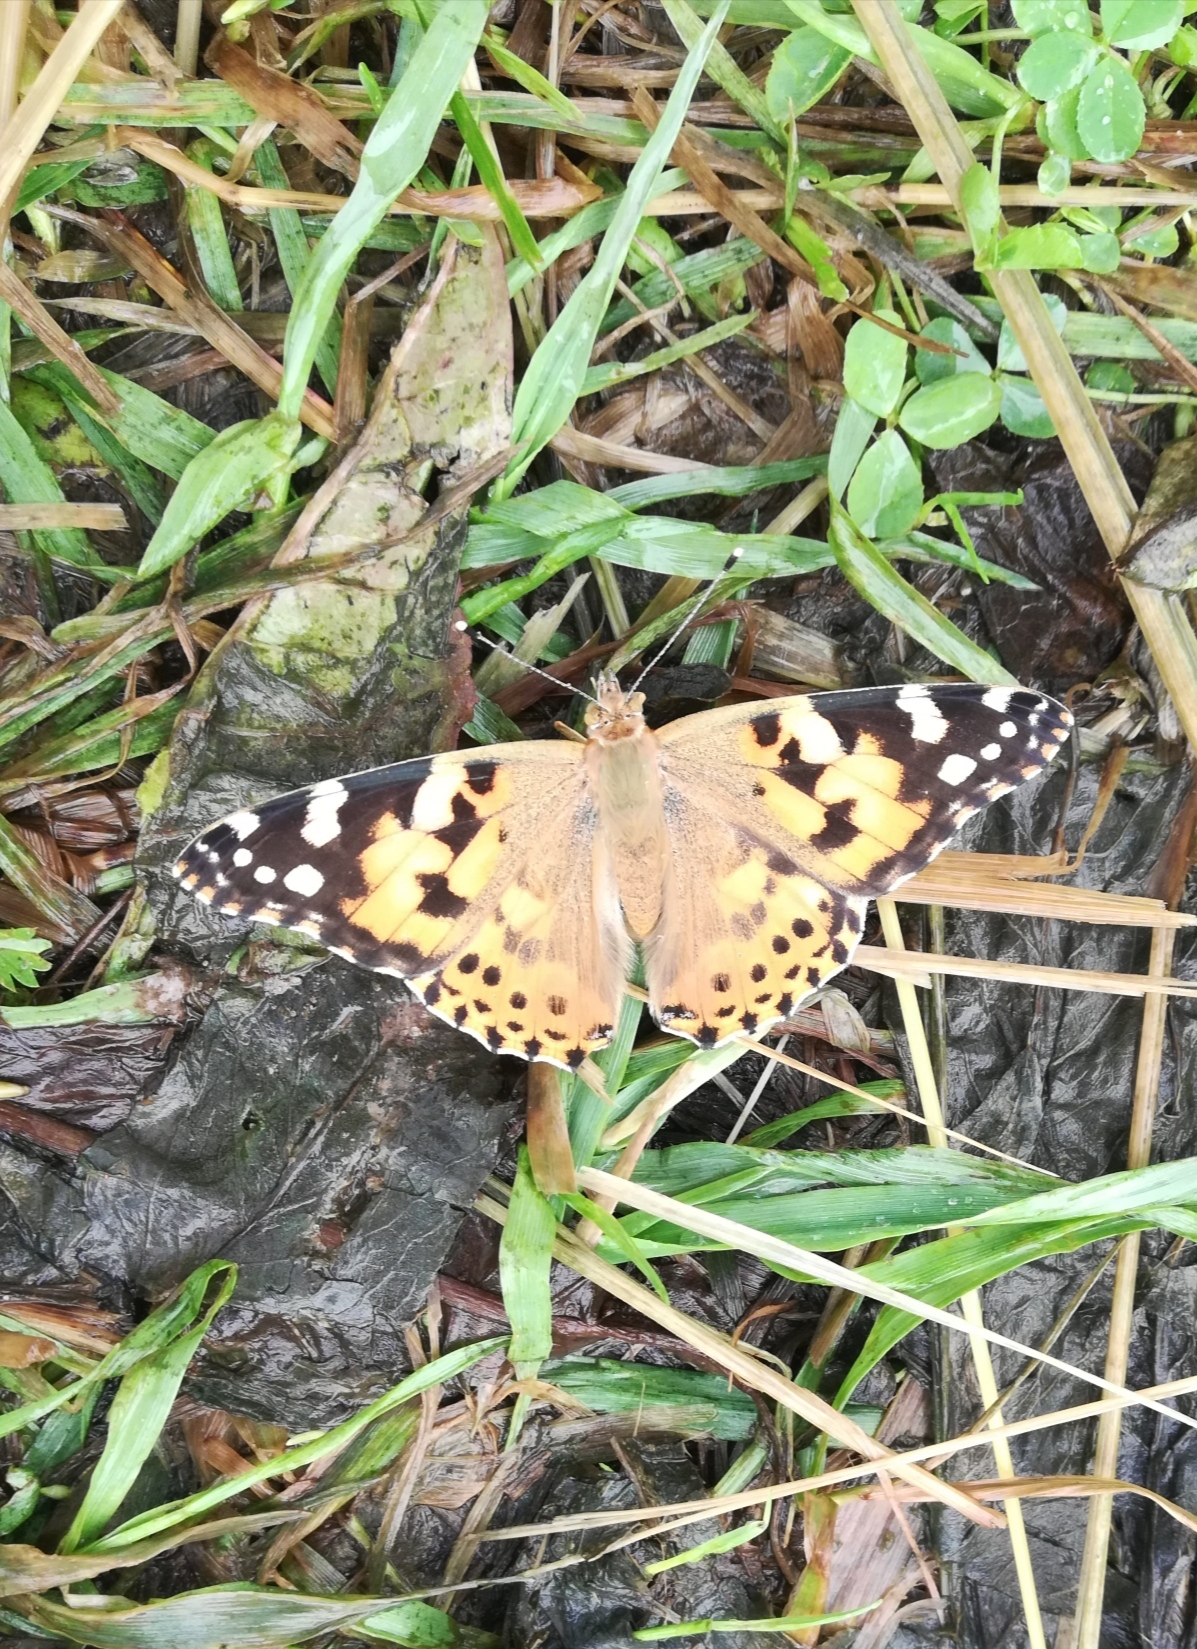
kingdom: Animalia
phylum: Arthropoda
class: Insecta
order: Lepidoptera
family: Nymphalidae
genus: Vanessa
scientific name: Vanessa cardui
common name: Painted lady
